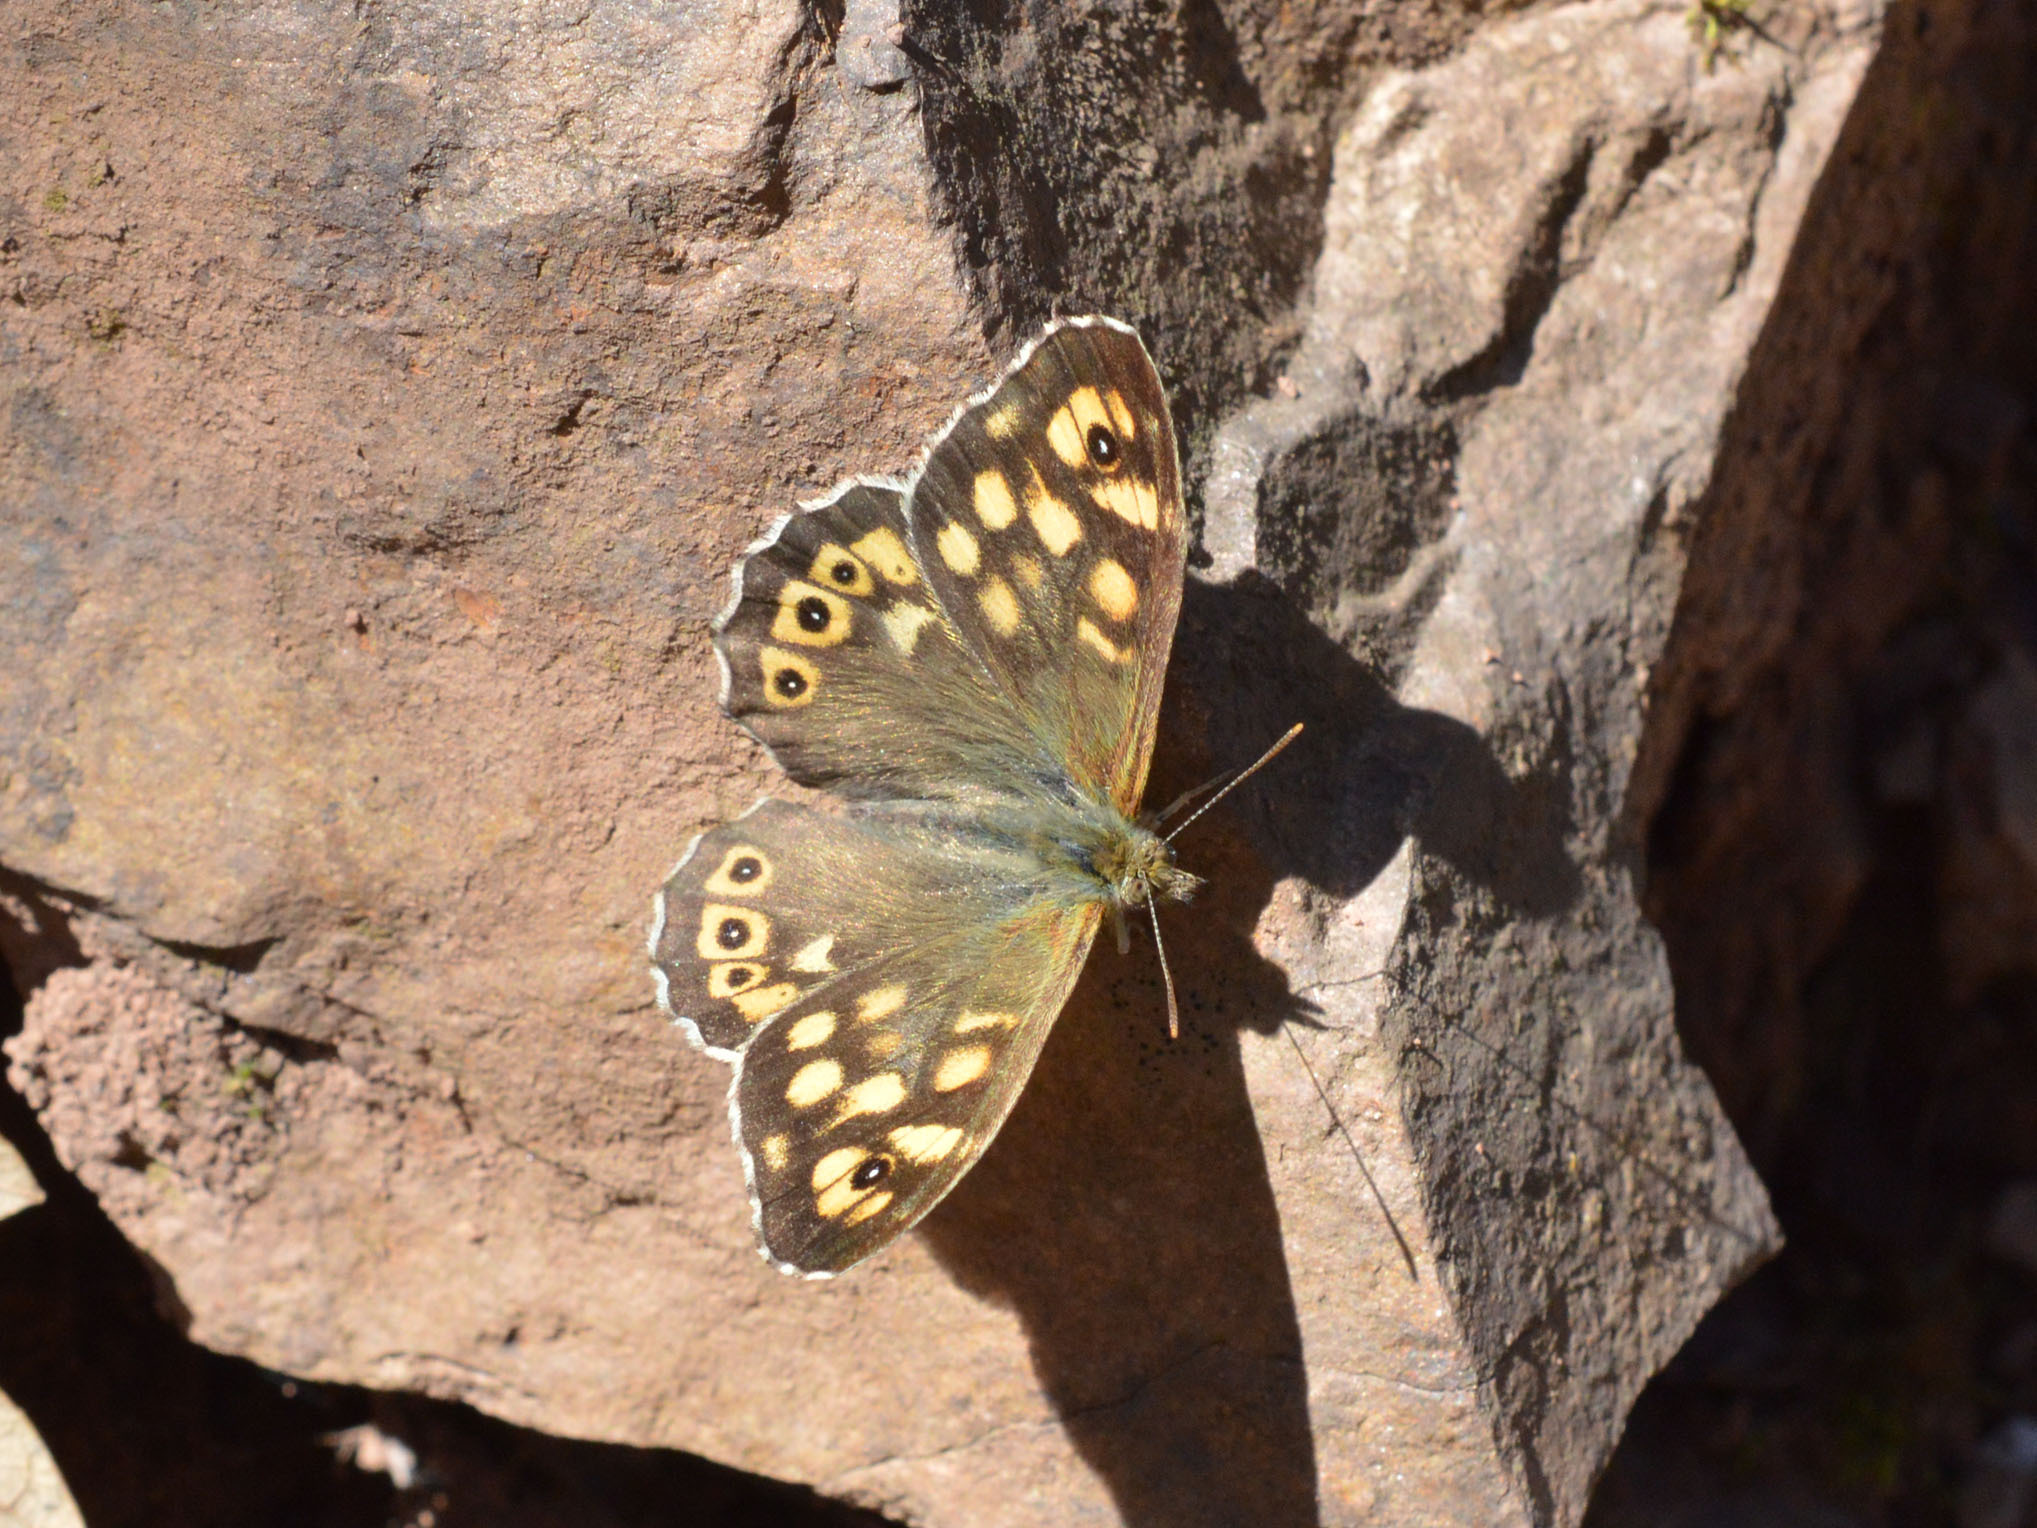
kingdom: Animalia
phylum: Arthropoda
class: Insecta
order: Lepidoptera
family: Nymphalidae
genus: Pararge
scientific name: Pararge aegeria
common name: Speckled wood
